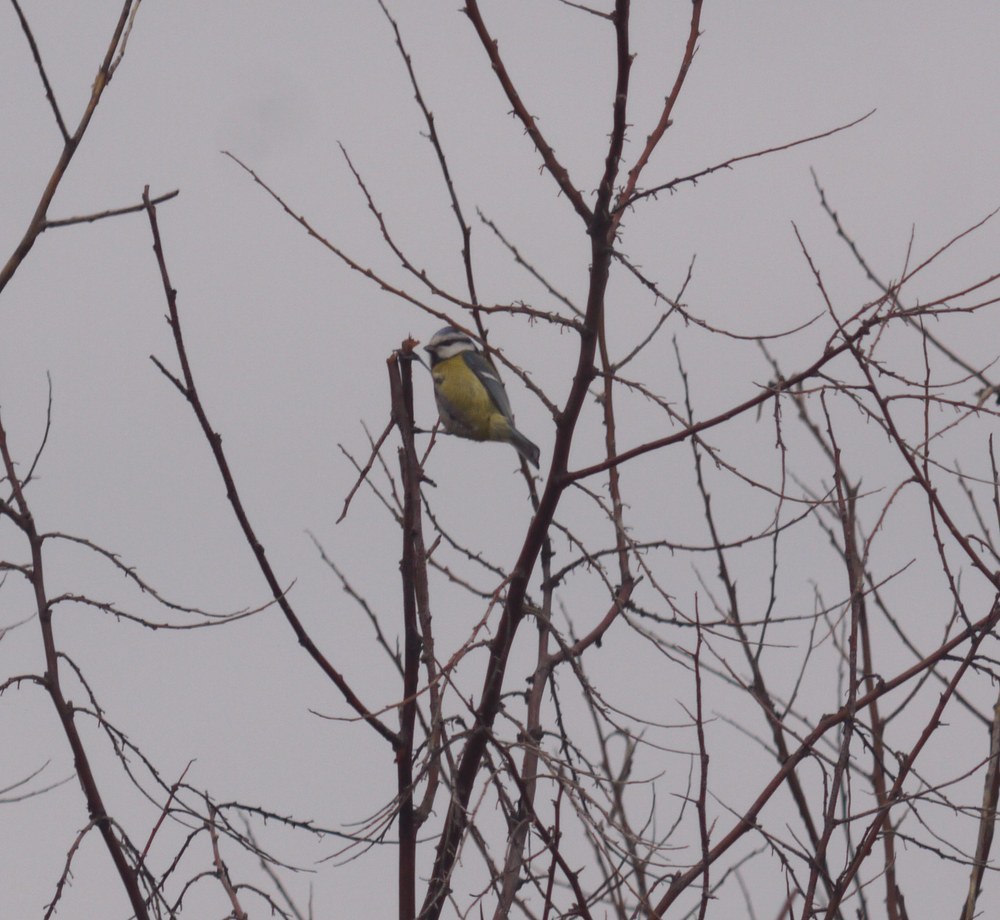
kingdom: Animalia
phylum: Chordata
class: Aves
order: Passeriformes
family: Paridae
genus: Cyanistes
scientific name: Cyanistes caeruleus
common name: Eurasian blue tit
